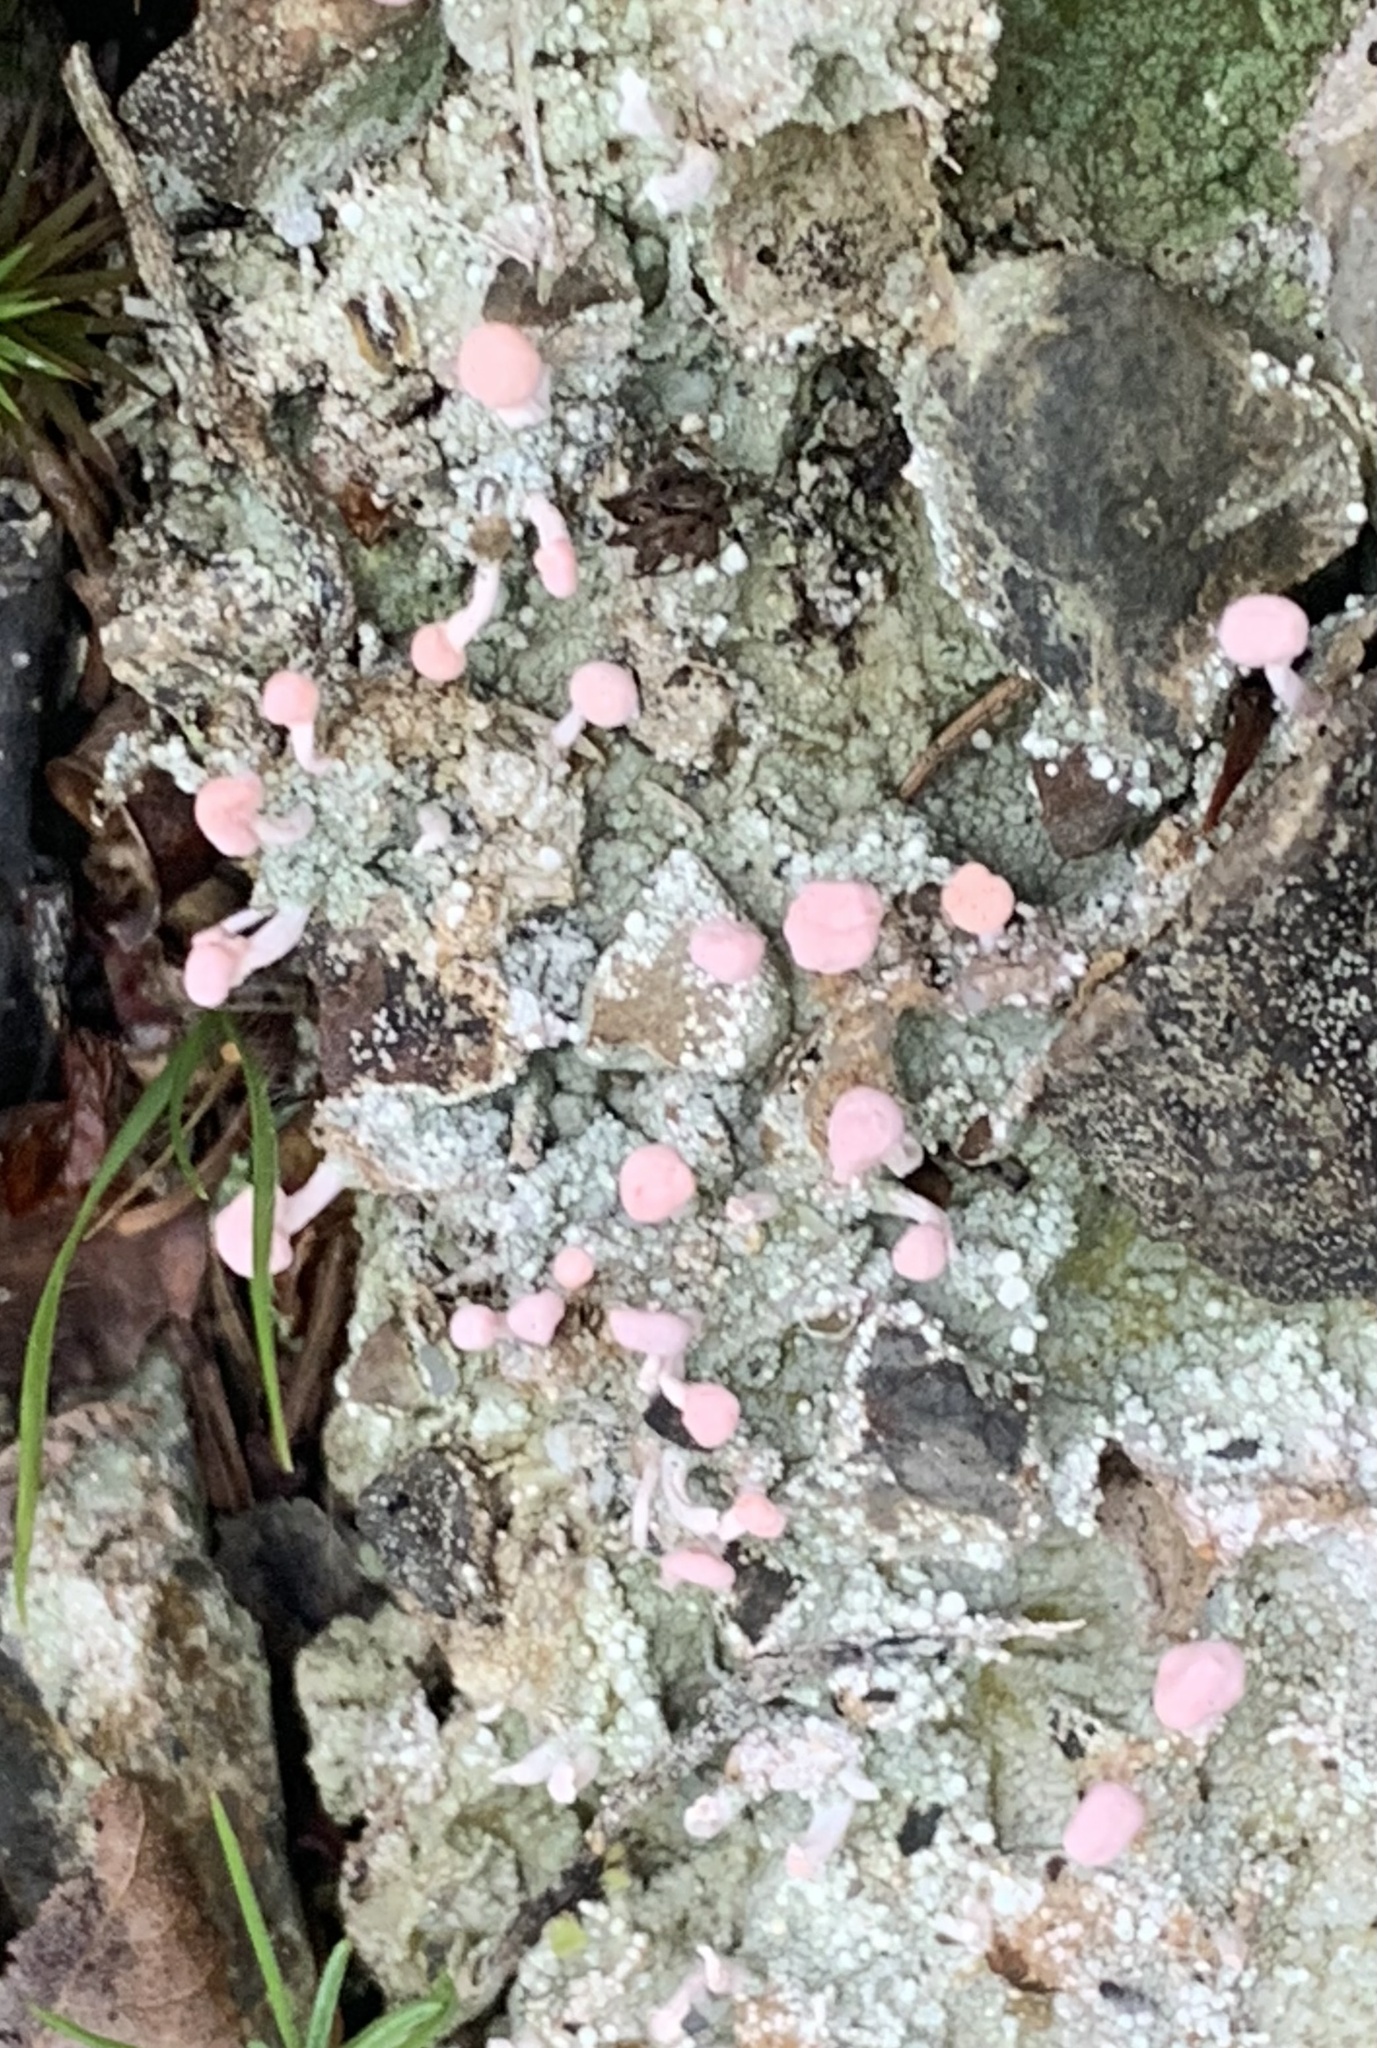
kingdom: Fungi
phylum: Ascomycota
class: Lecanoromycetes
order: Pertusariales
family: Icmadophilaceae
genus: Dibaeis
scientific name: Dibaeis baeomyces
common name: Pink earth lichen
